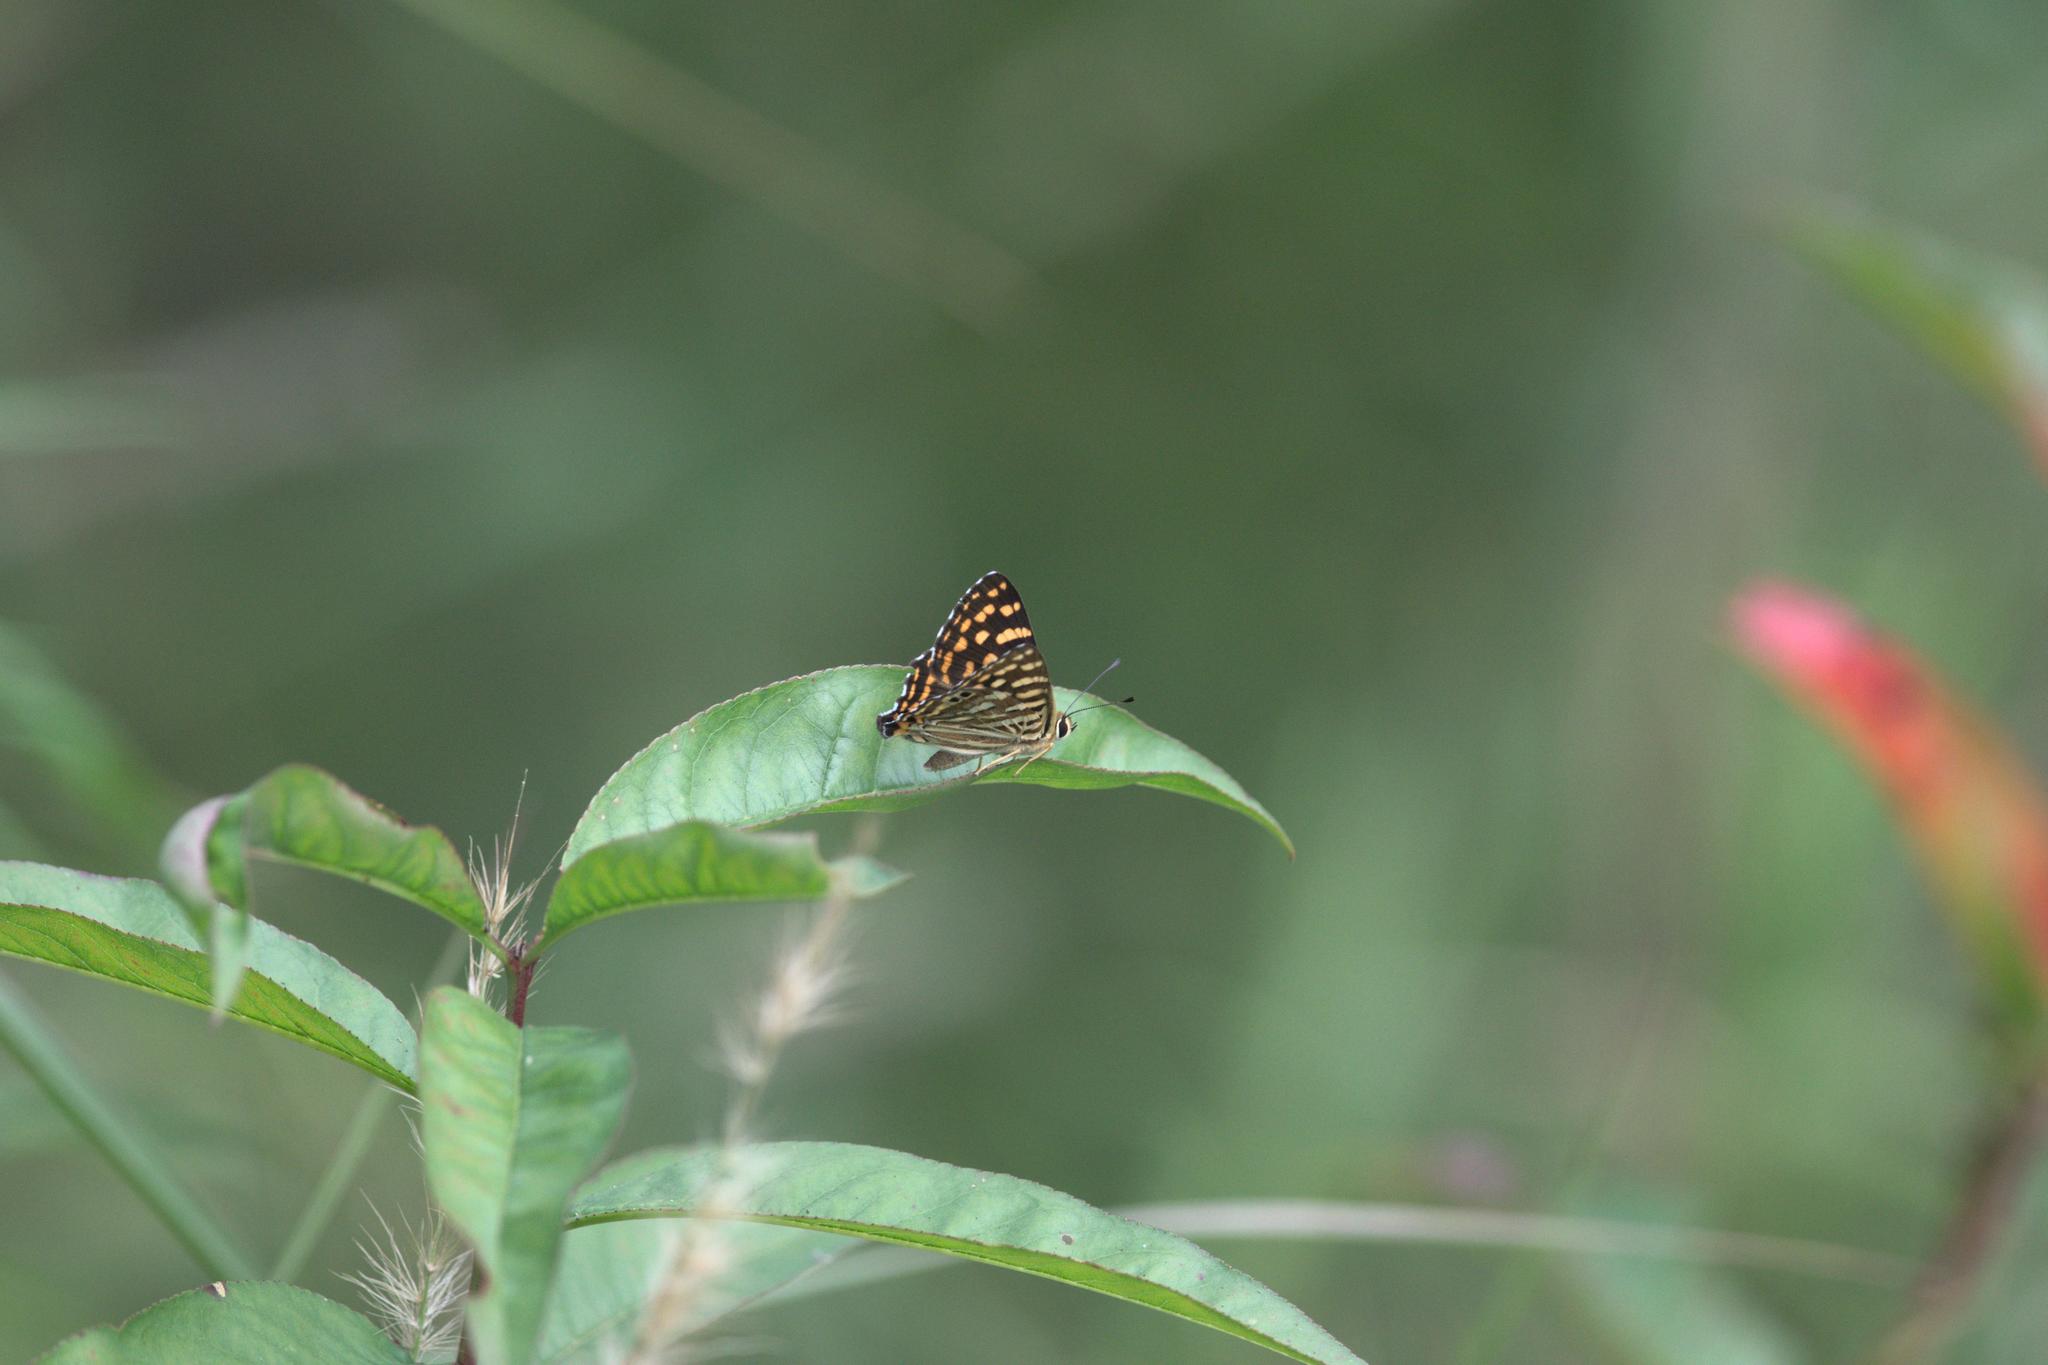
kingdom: Animalia
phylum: Arthropoda
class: Insecta
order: Lepidoptera
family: Lycaenidae
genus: Dodona
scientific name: Dodona durga
